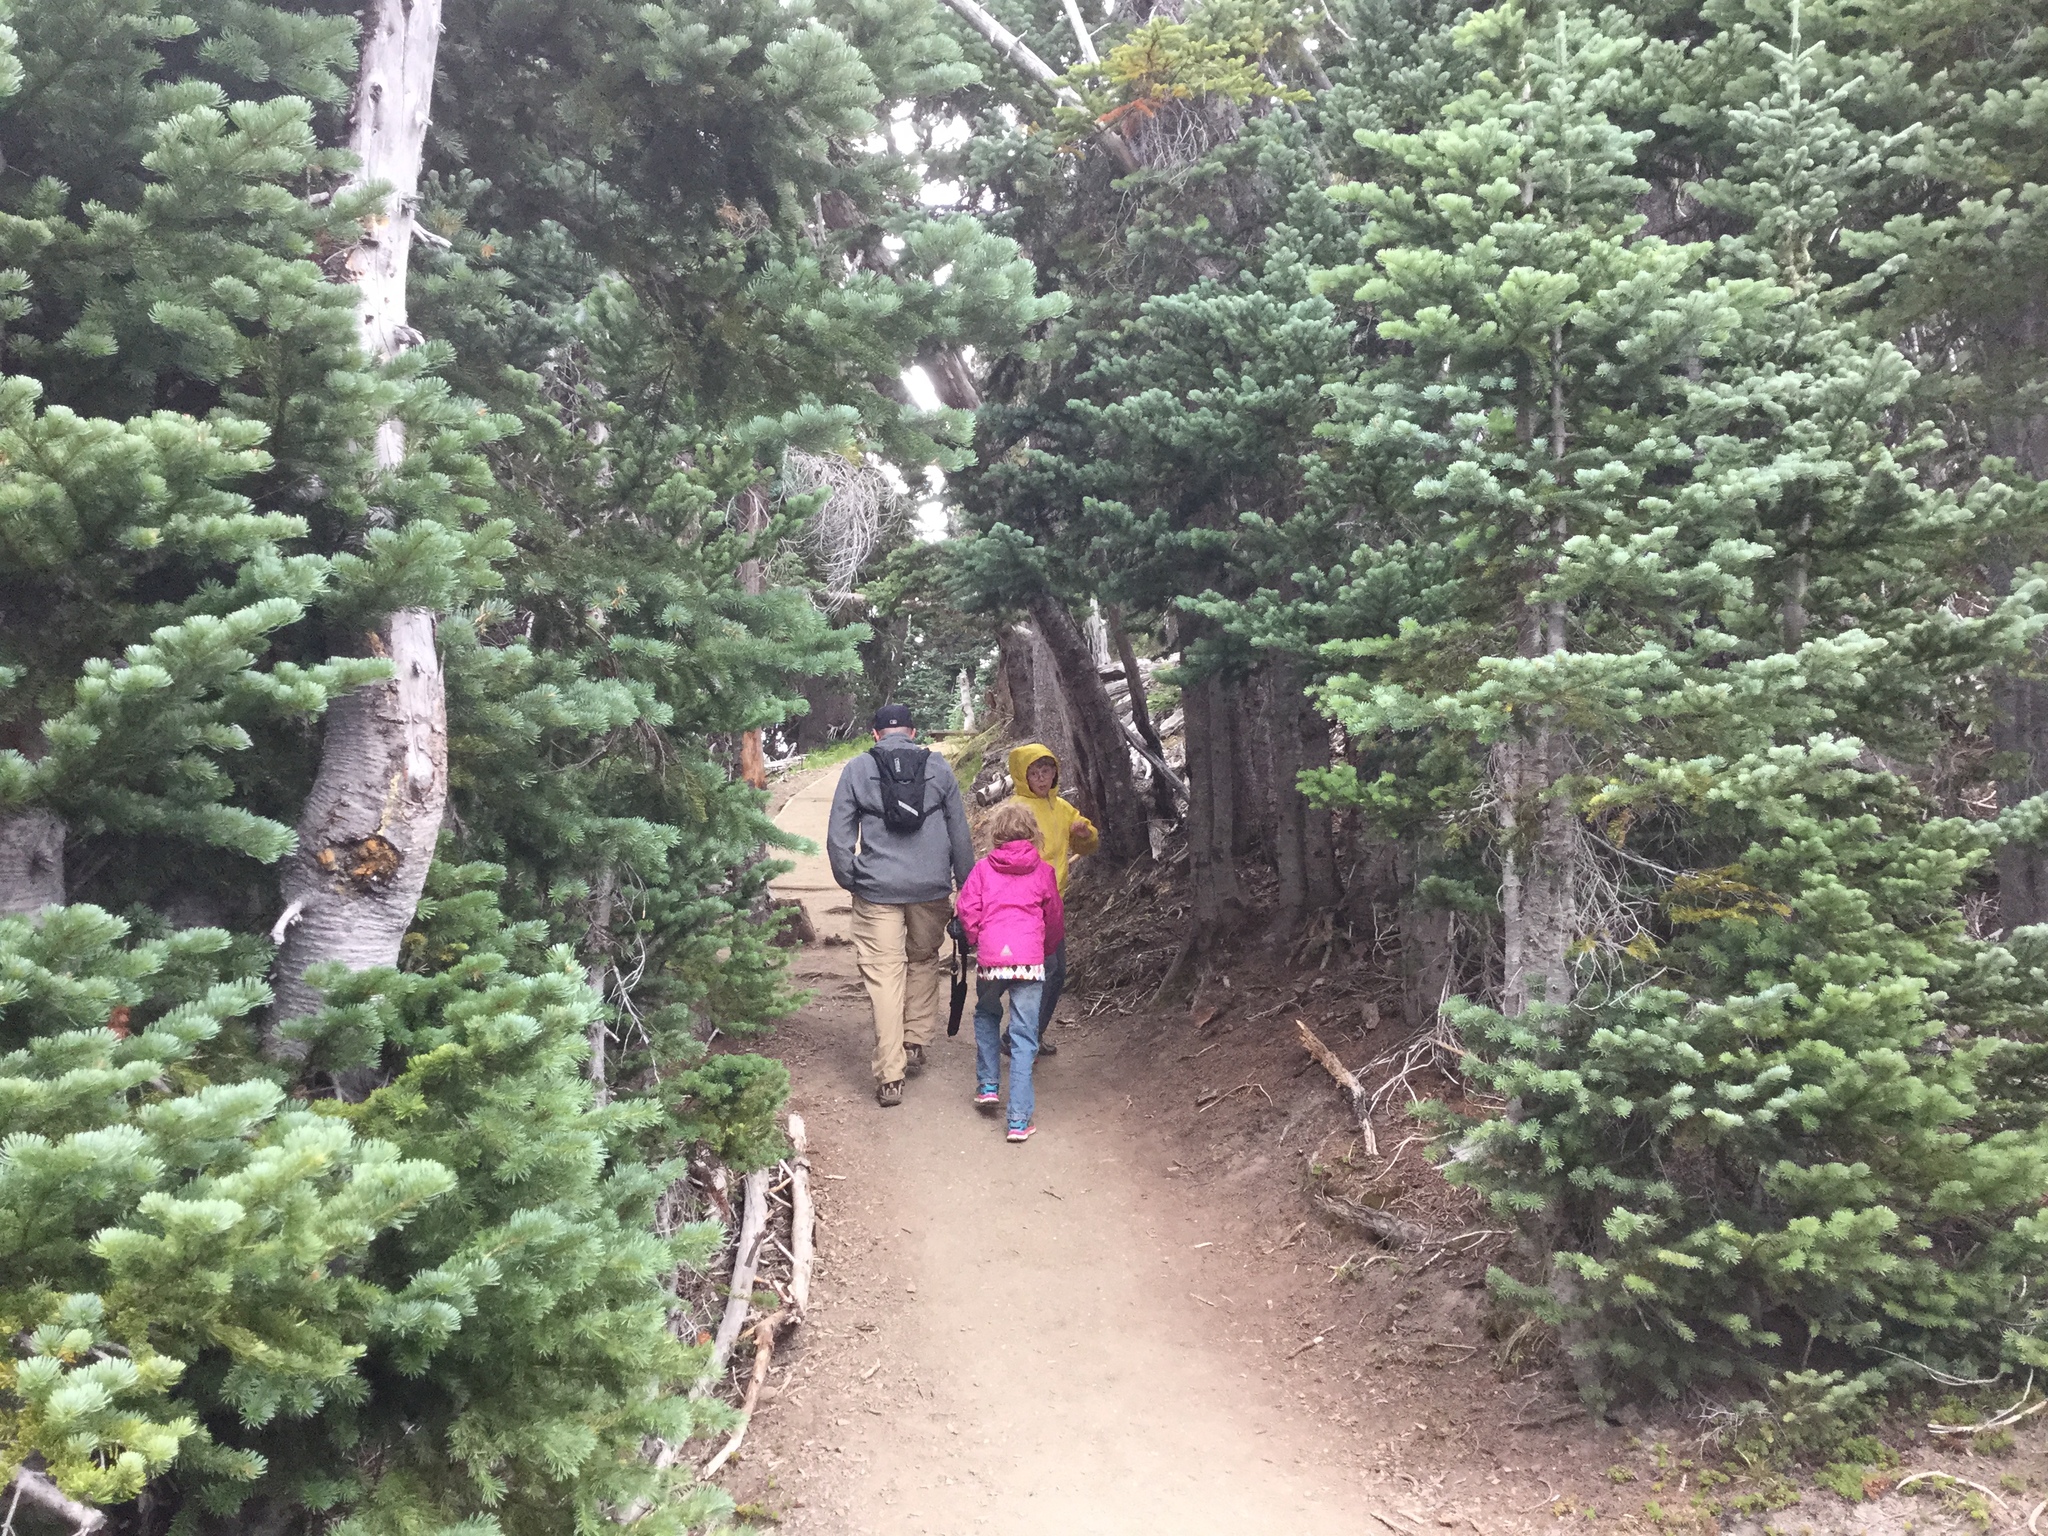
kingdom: Plantae
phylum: Tracheophyta
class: Pinopsida
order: Pinales
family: Pinaceae
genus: Abies
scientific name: Abies lasiocarpa
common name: Subalpine fir
